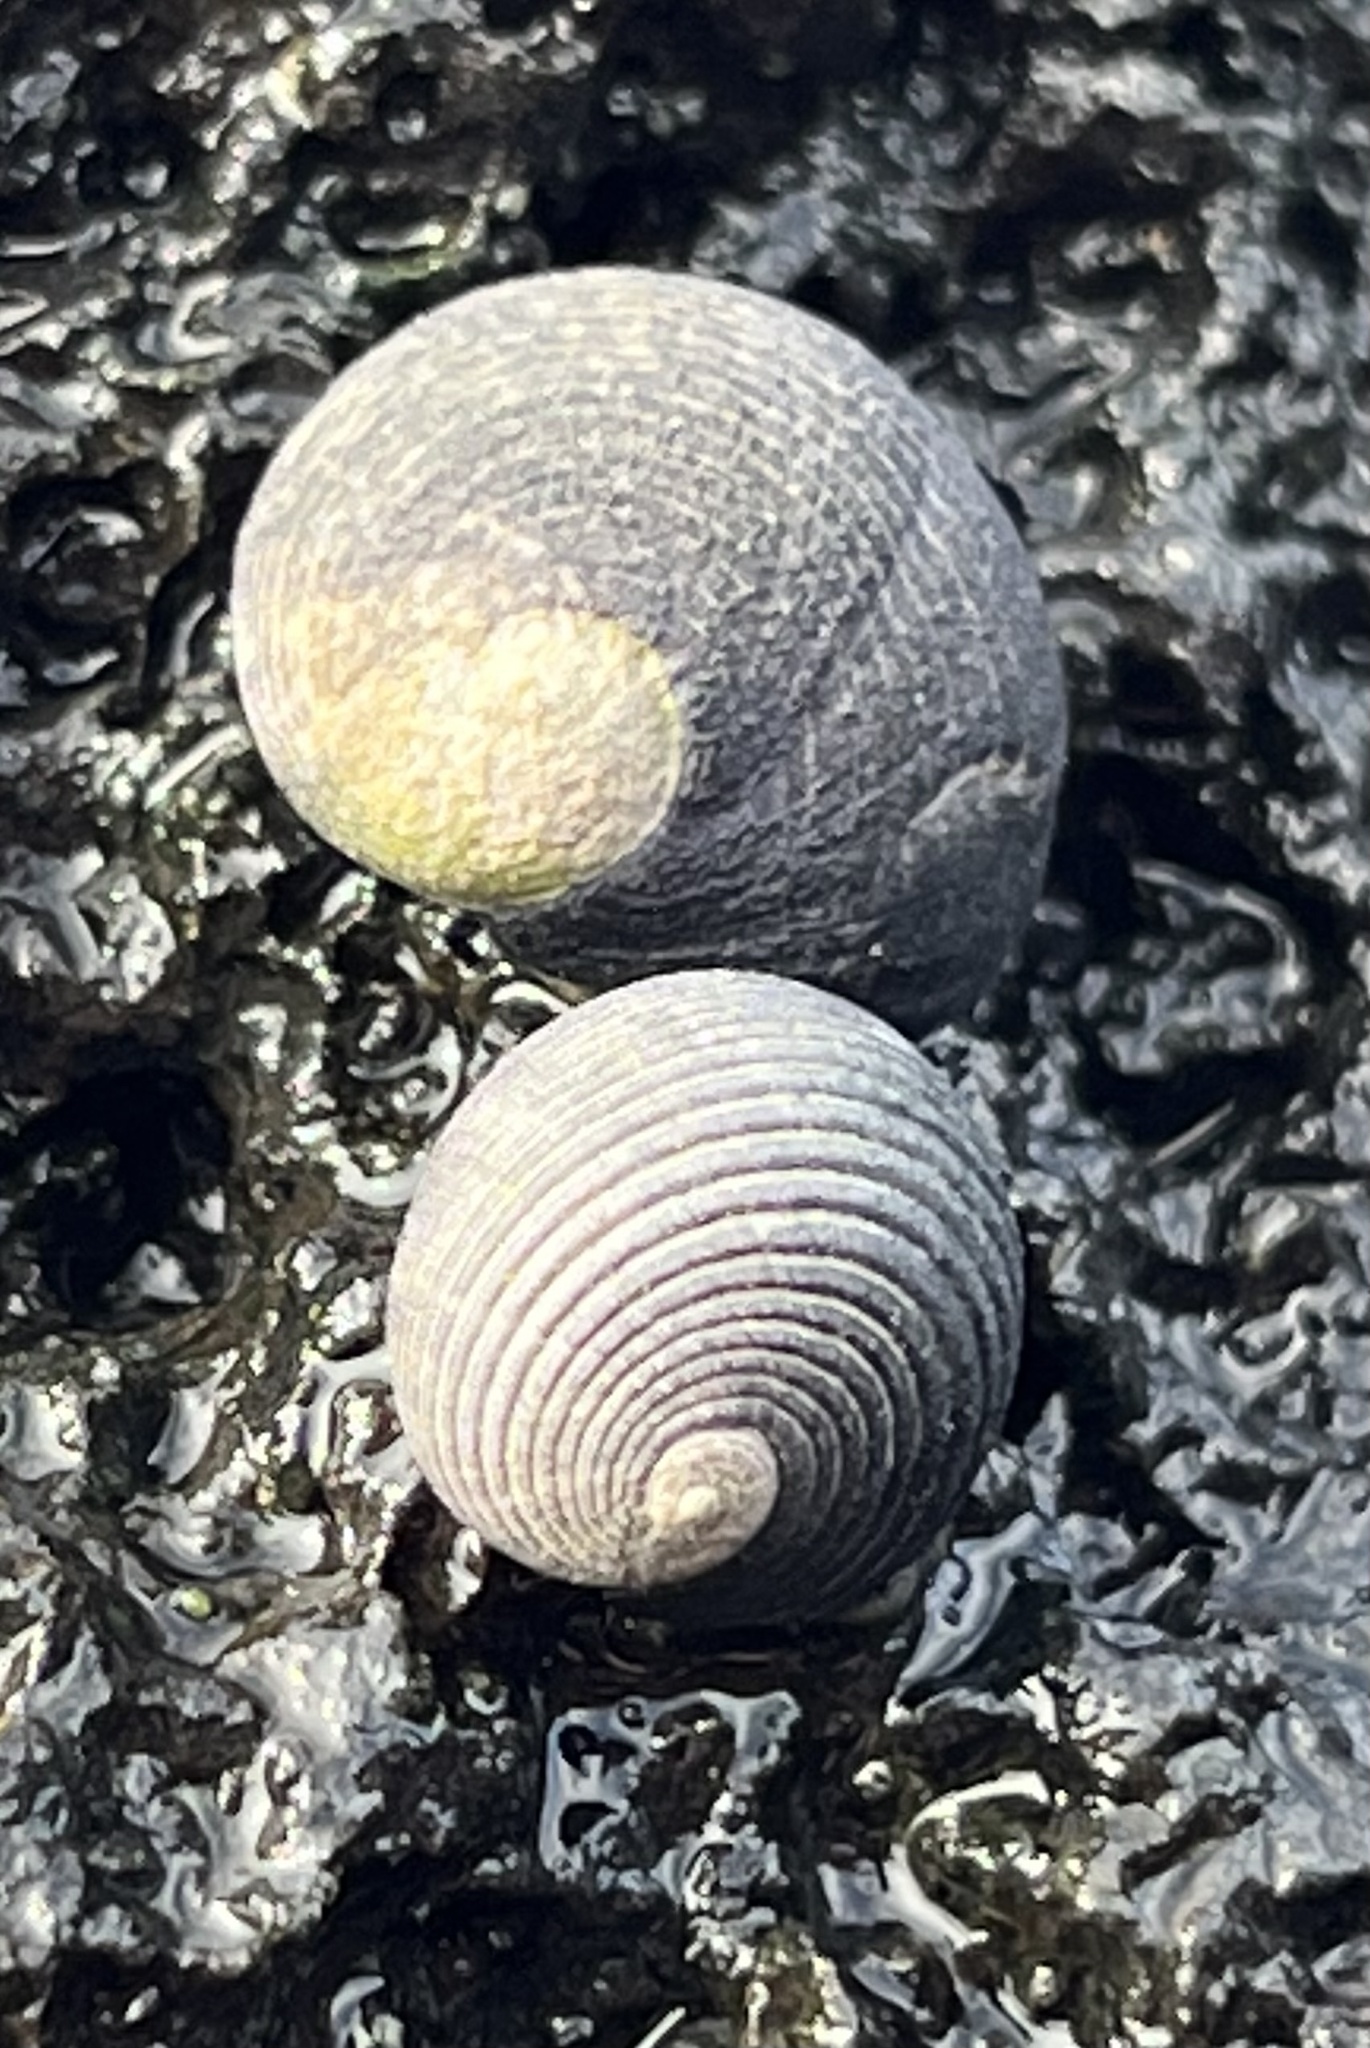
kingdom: Animalia
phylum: Mollusca
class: Gastropoda
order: Cycloneritida
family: Neritidae
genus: Nerita
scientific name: Nerita picea
